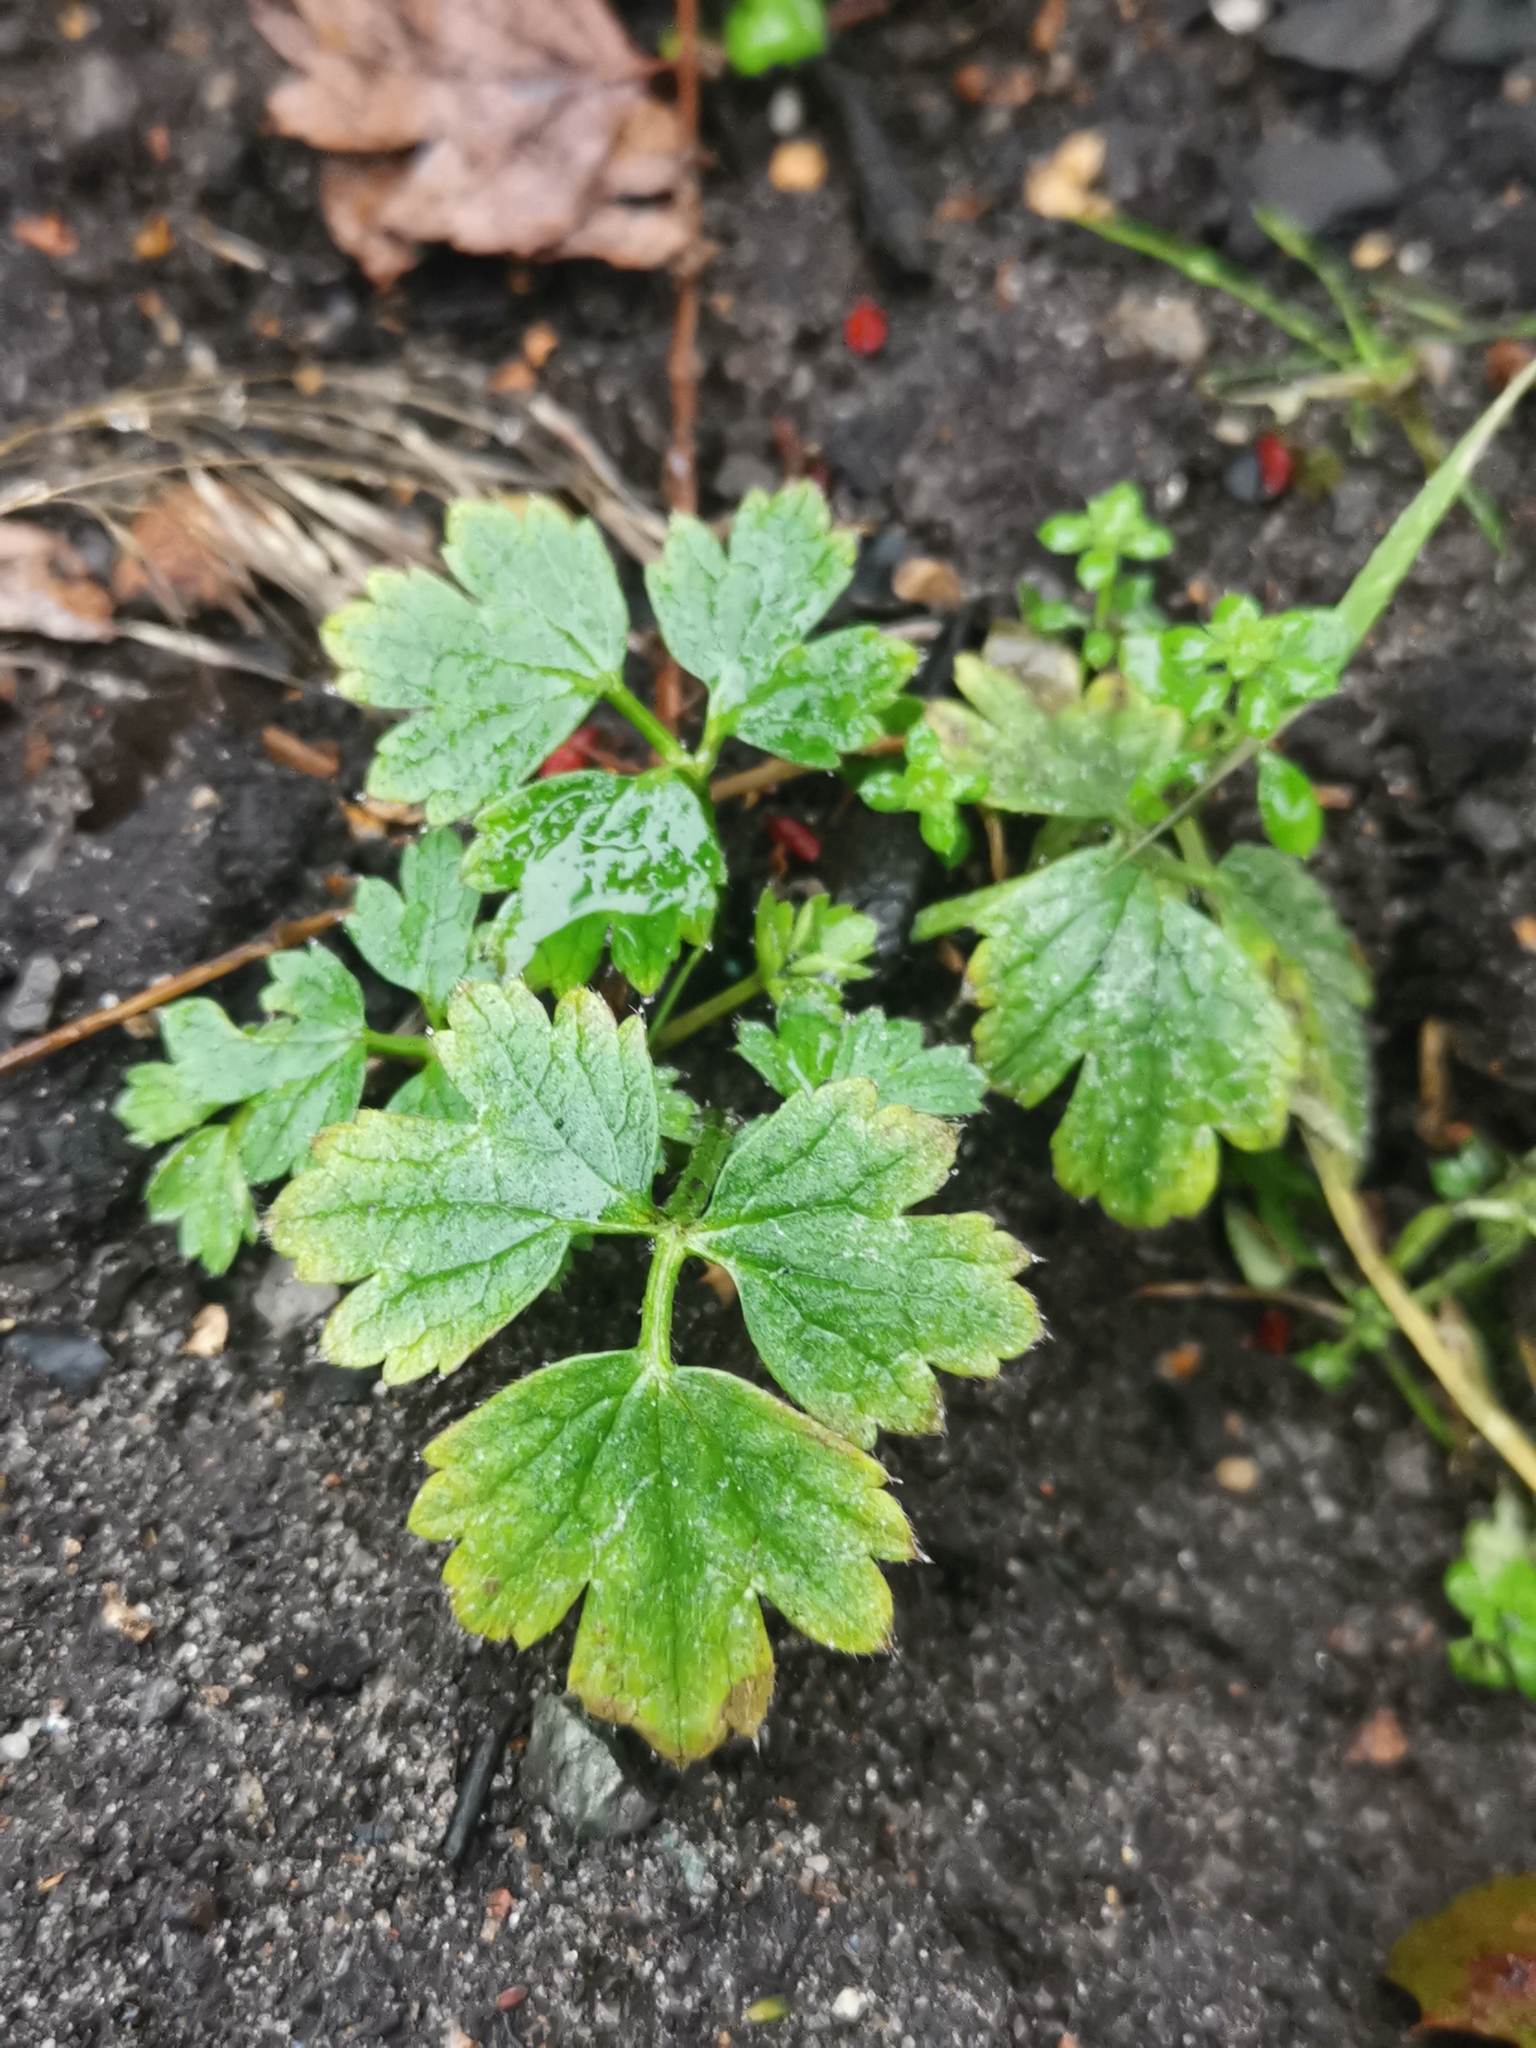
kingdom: Plantae
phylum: Tracheophyta
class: Magnoliopsida
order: Ranunculales
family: Ranunculaceae
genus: Ranunculus
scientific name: Ranunculus repens
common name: Creeping buttercup
